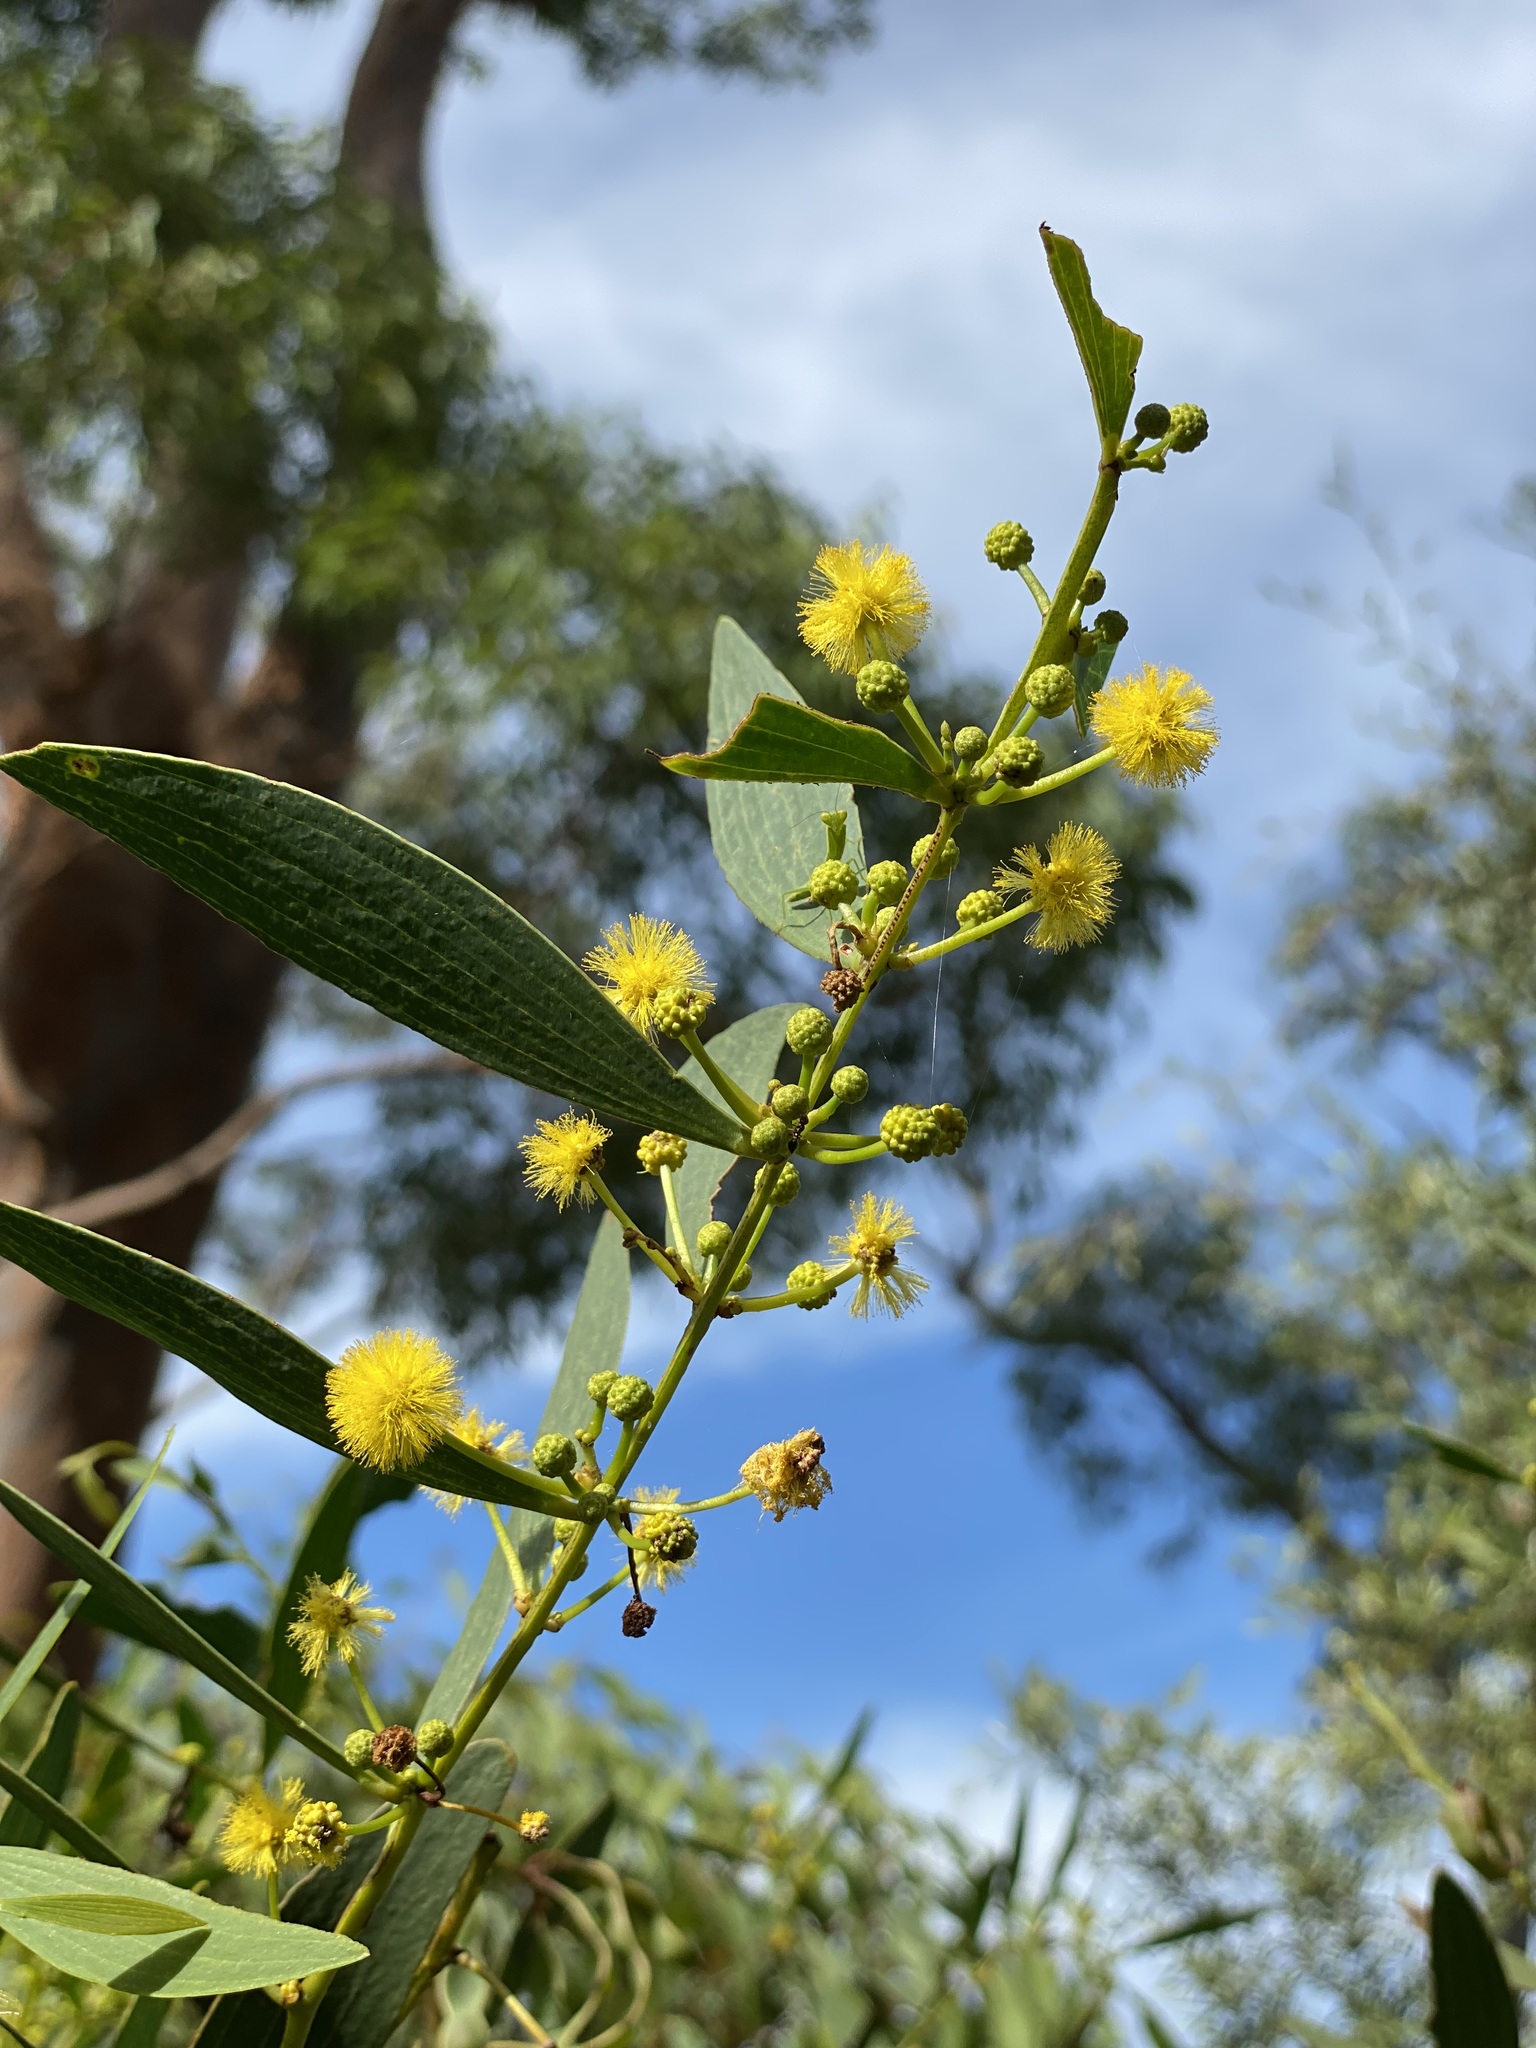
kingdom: Plantae
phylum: Tracheophyta
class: Magnoliopsida
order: Fabales
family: Fabaceae
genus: Acacia
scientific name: Acacia complanata
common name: Flat-stemmed wattle
